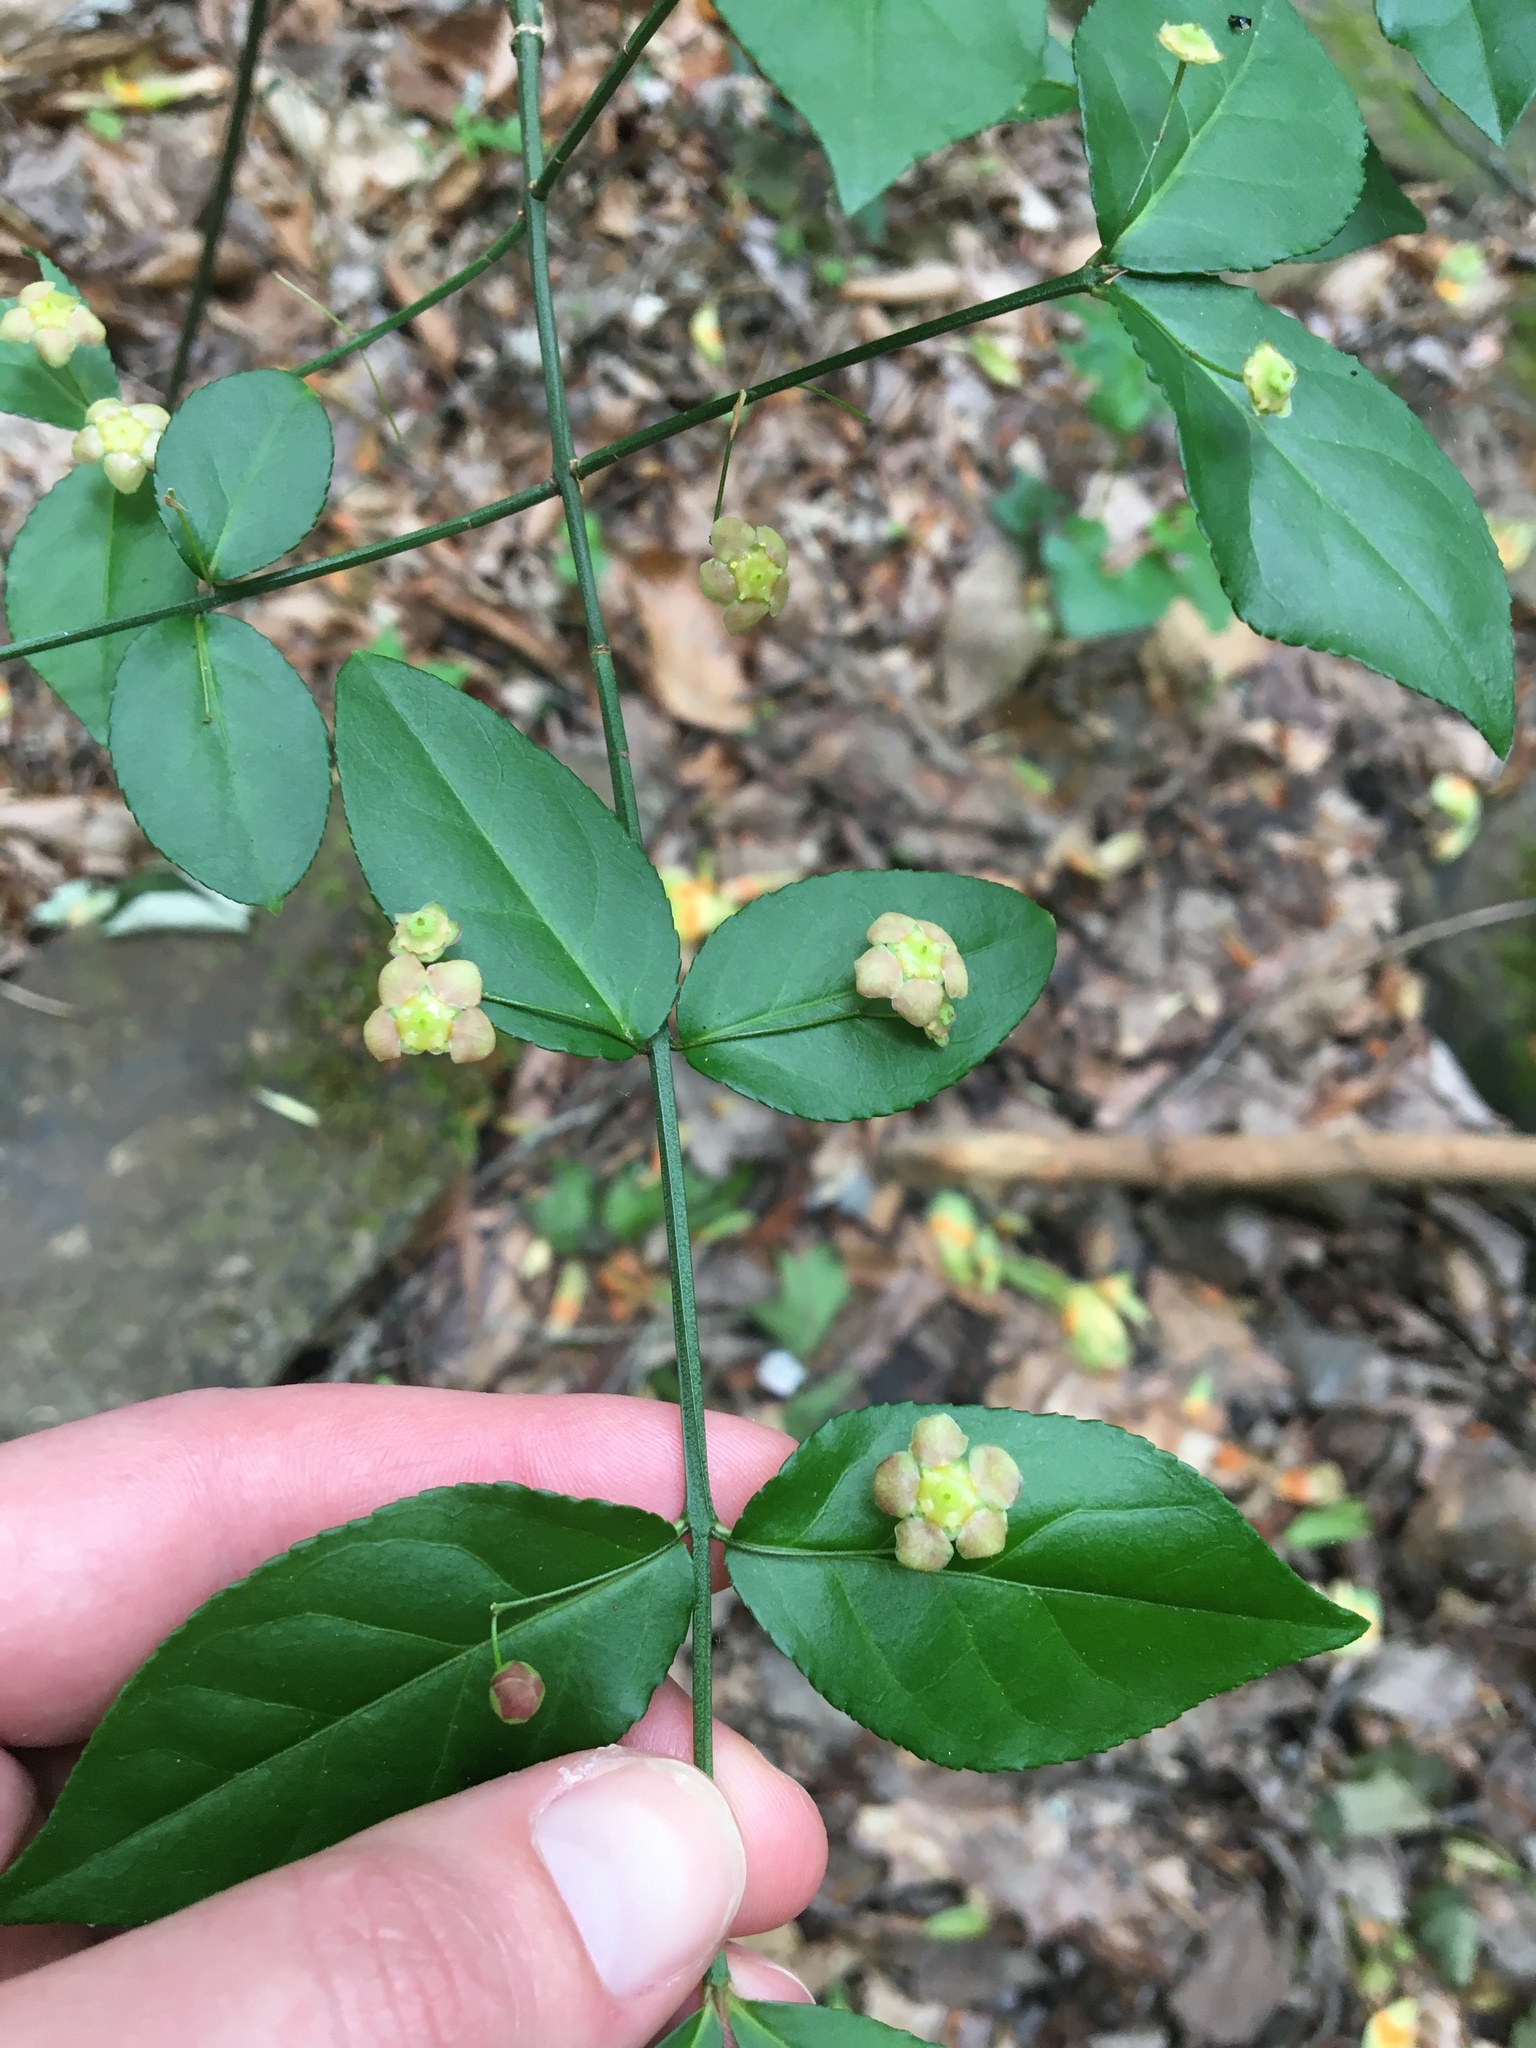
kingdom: Plantae
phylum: Tracheophyta
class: Magnoliopsida
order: Celastrales
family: Celastraceae
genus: Euonymus
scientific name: Euonymus americanus
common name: Bursting-heart
